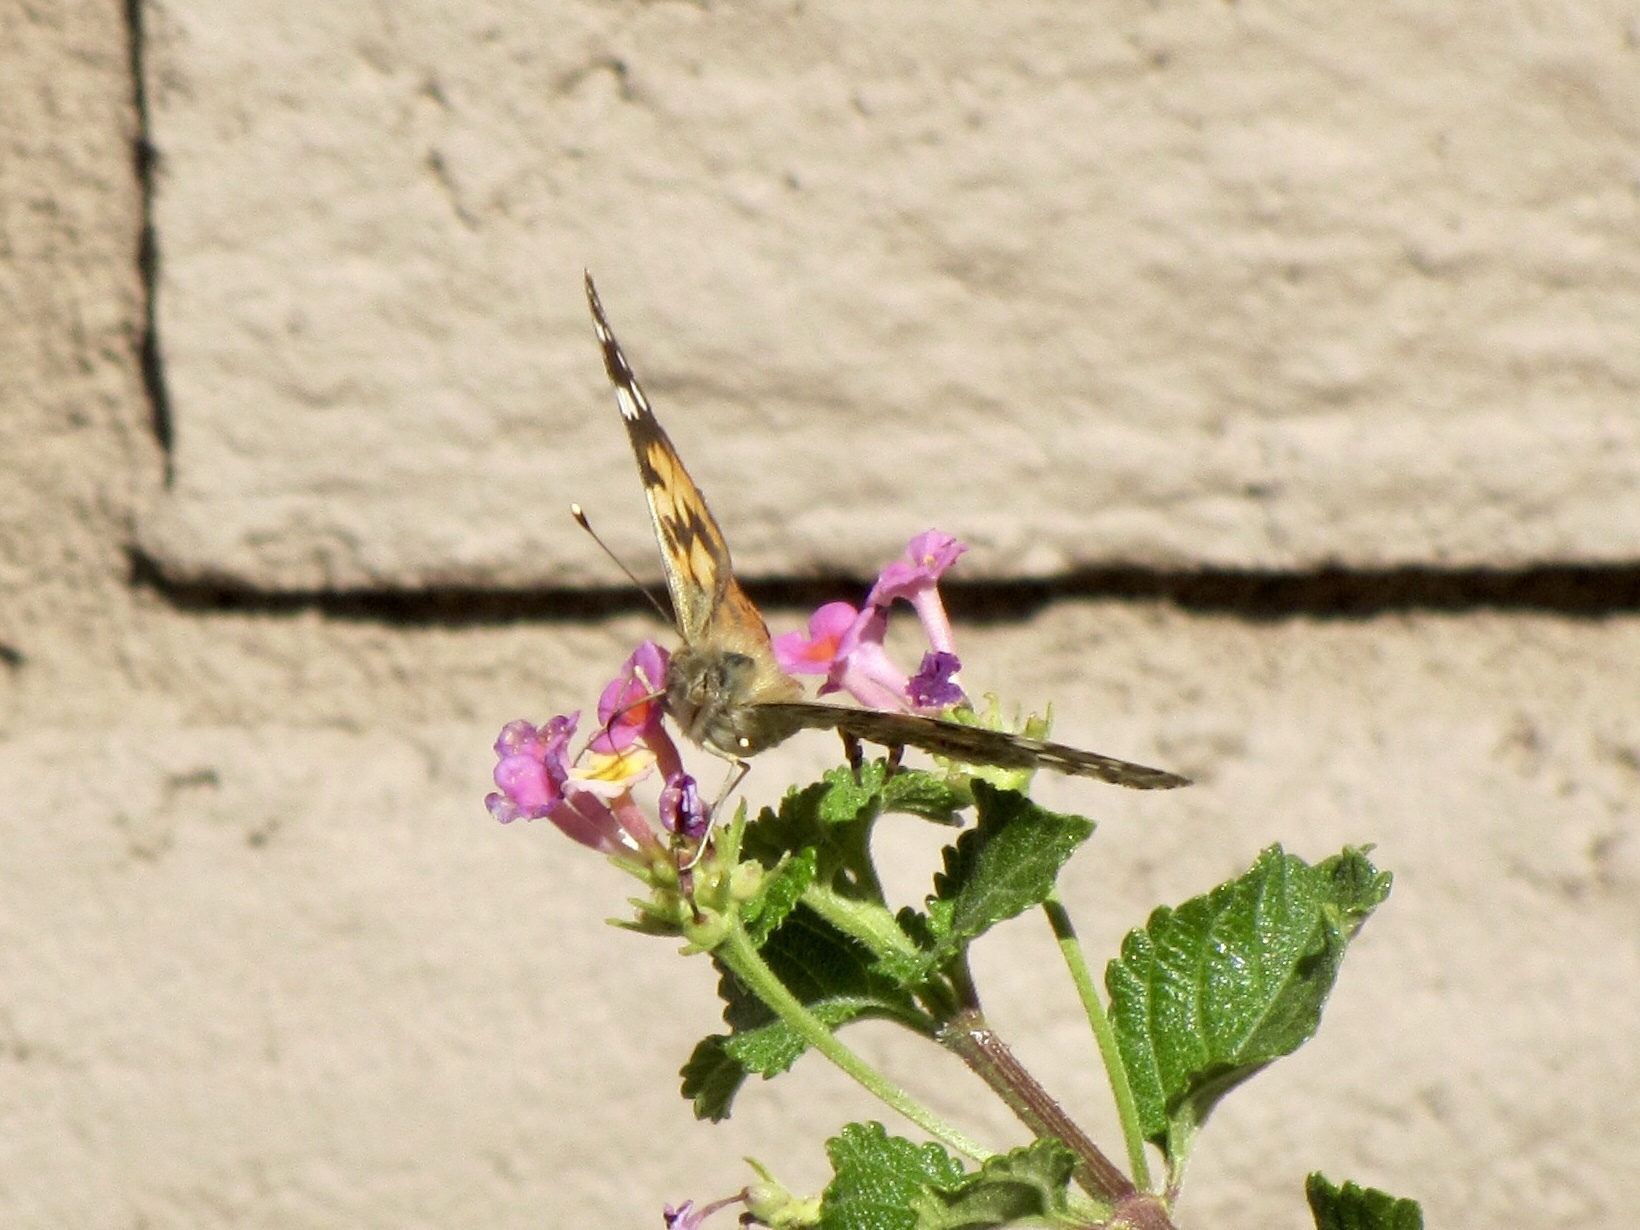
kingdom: Animalia
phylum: Arthropoda
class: Insecta
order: Lepidoptera
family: Nymphalidae
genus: Vanessa
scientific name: Vanessa cardui
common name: Painted lady
